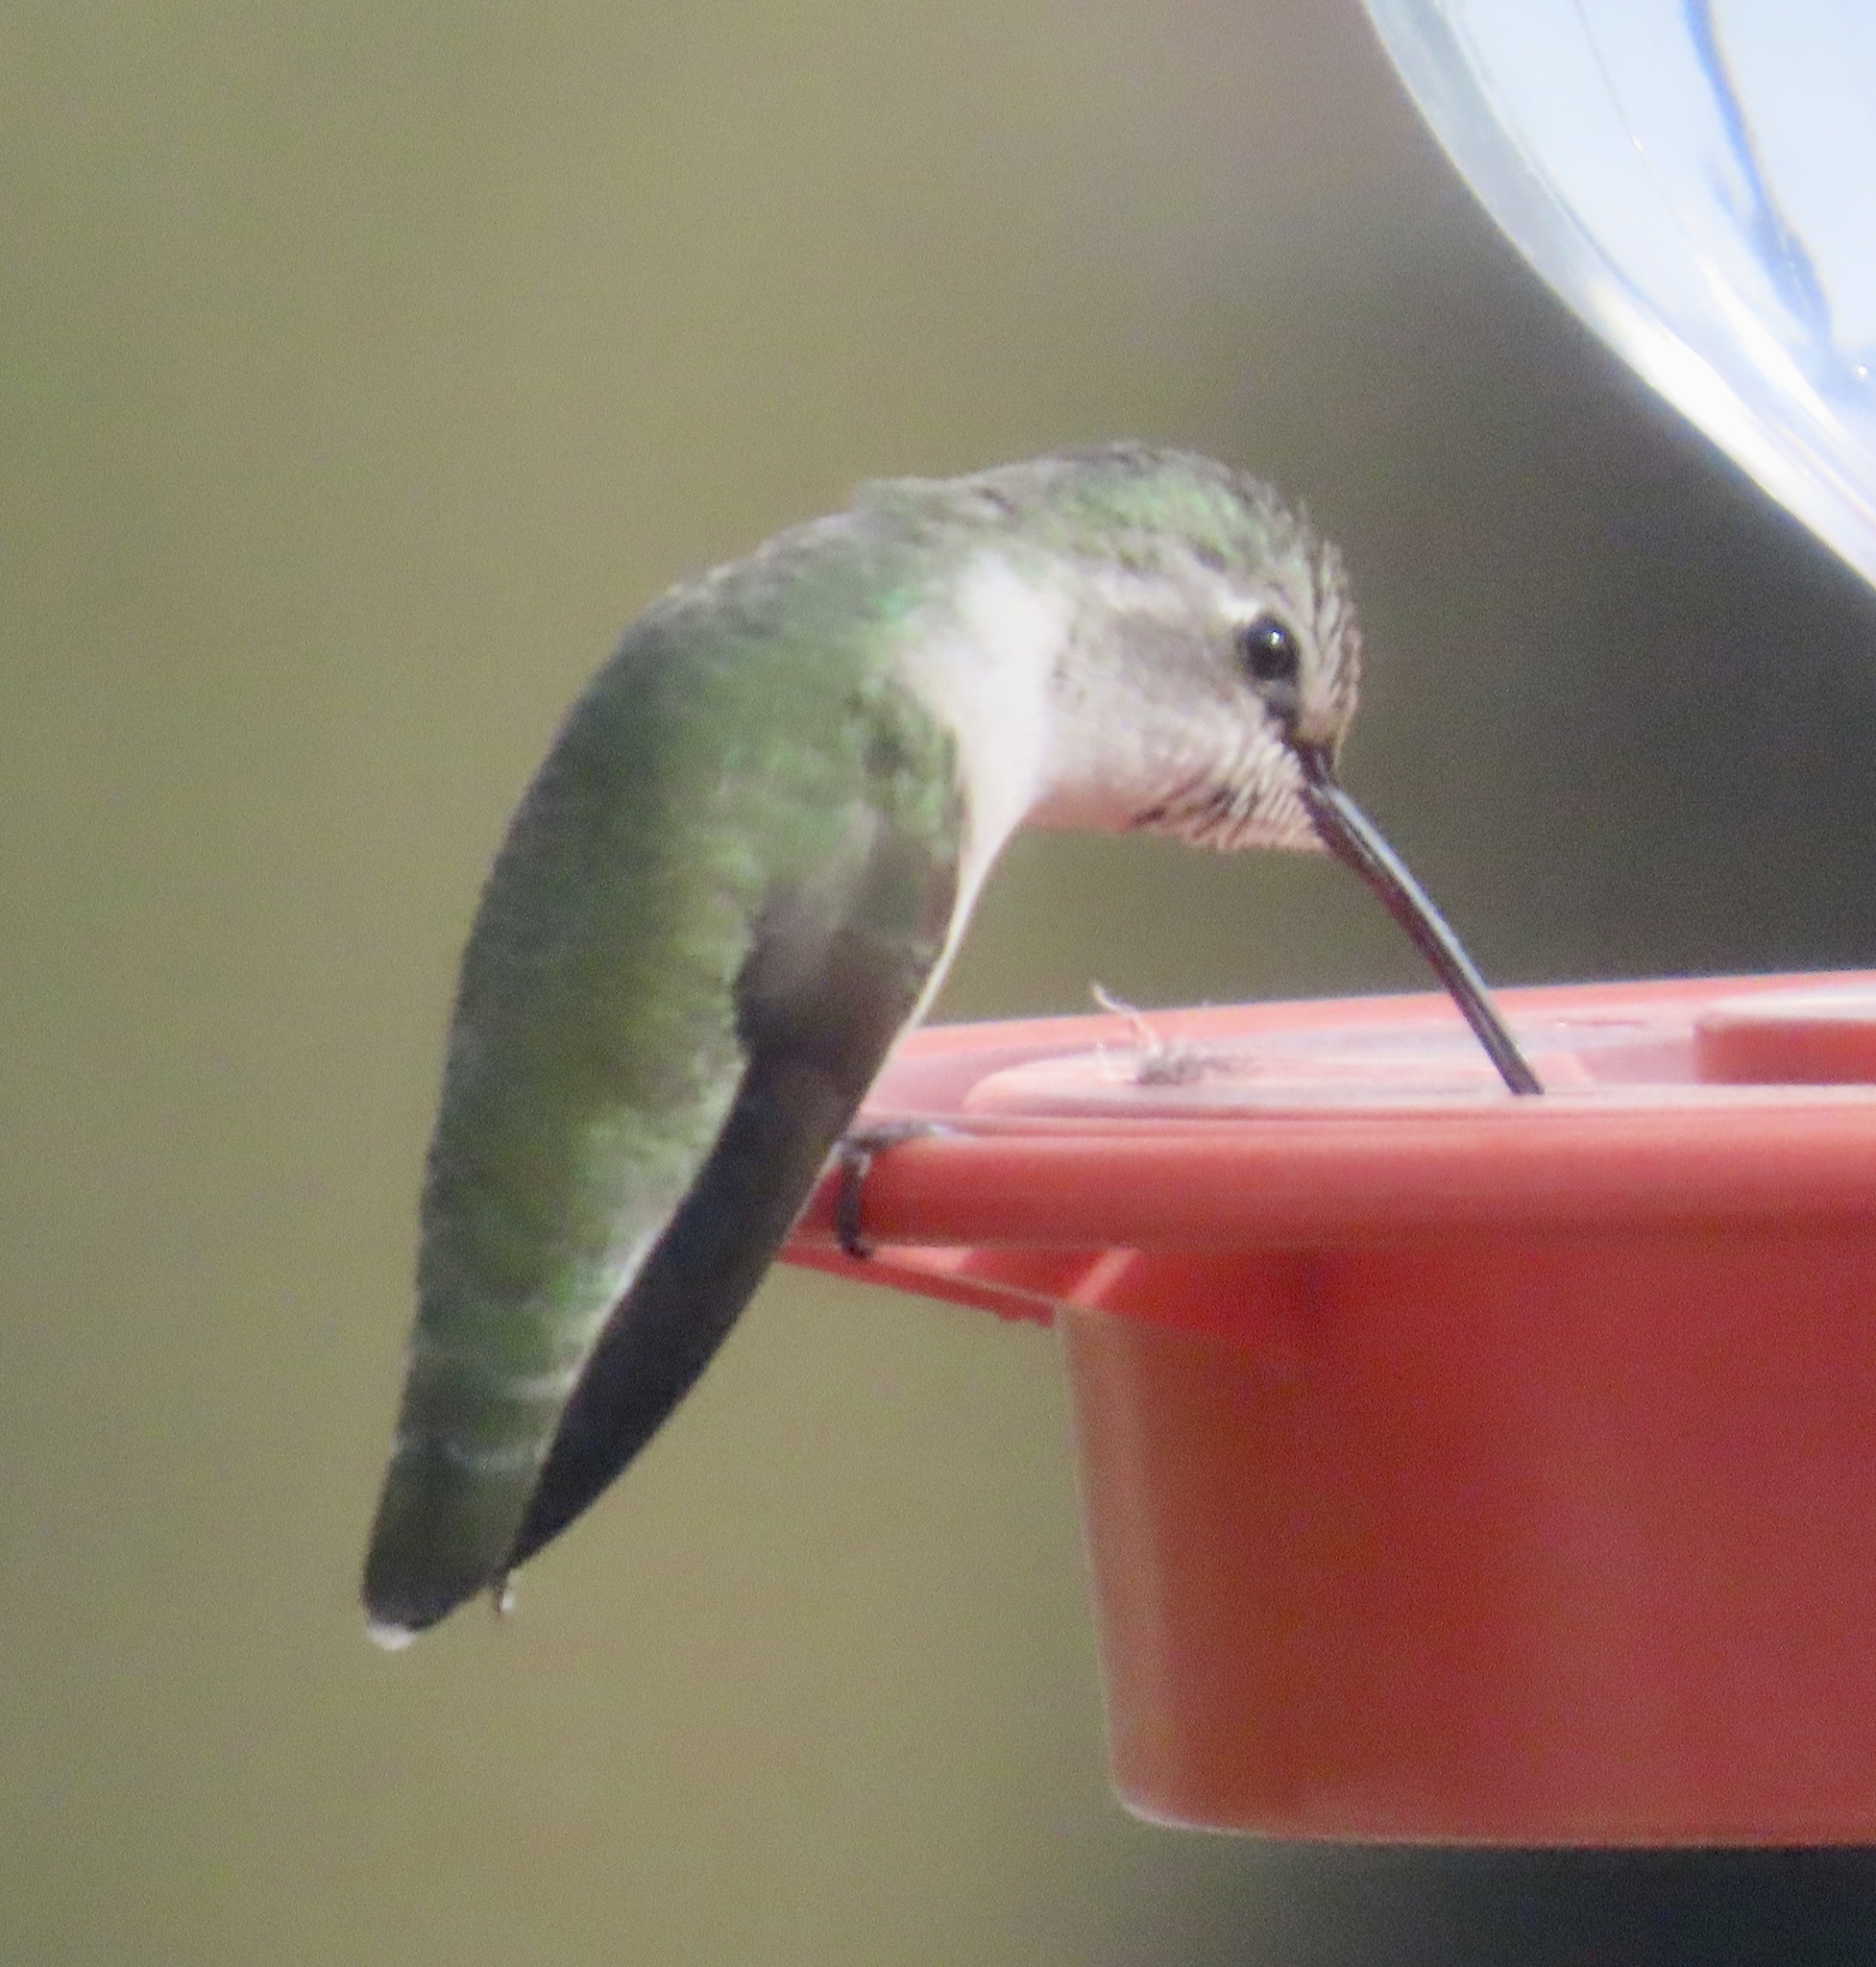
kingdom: Animalia
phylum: Chordata
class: Aves
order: Apodiformes
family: Trochilidae
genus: Calypte
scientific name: Calypte costae
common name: Costa's hummingbird
